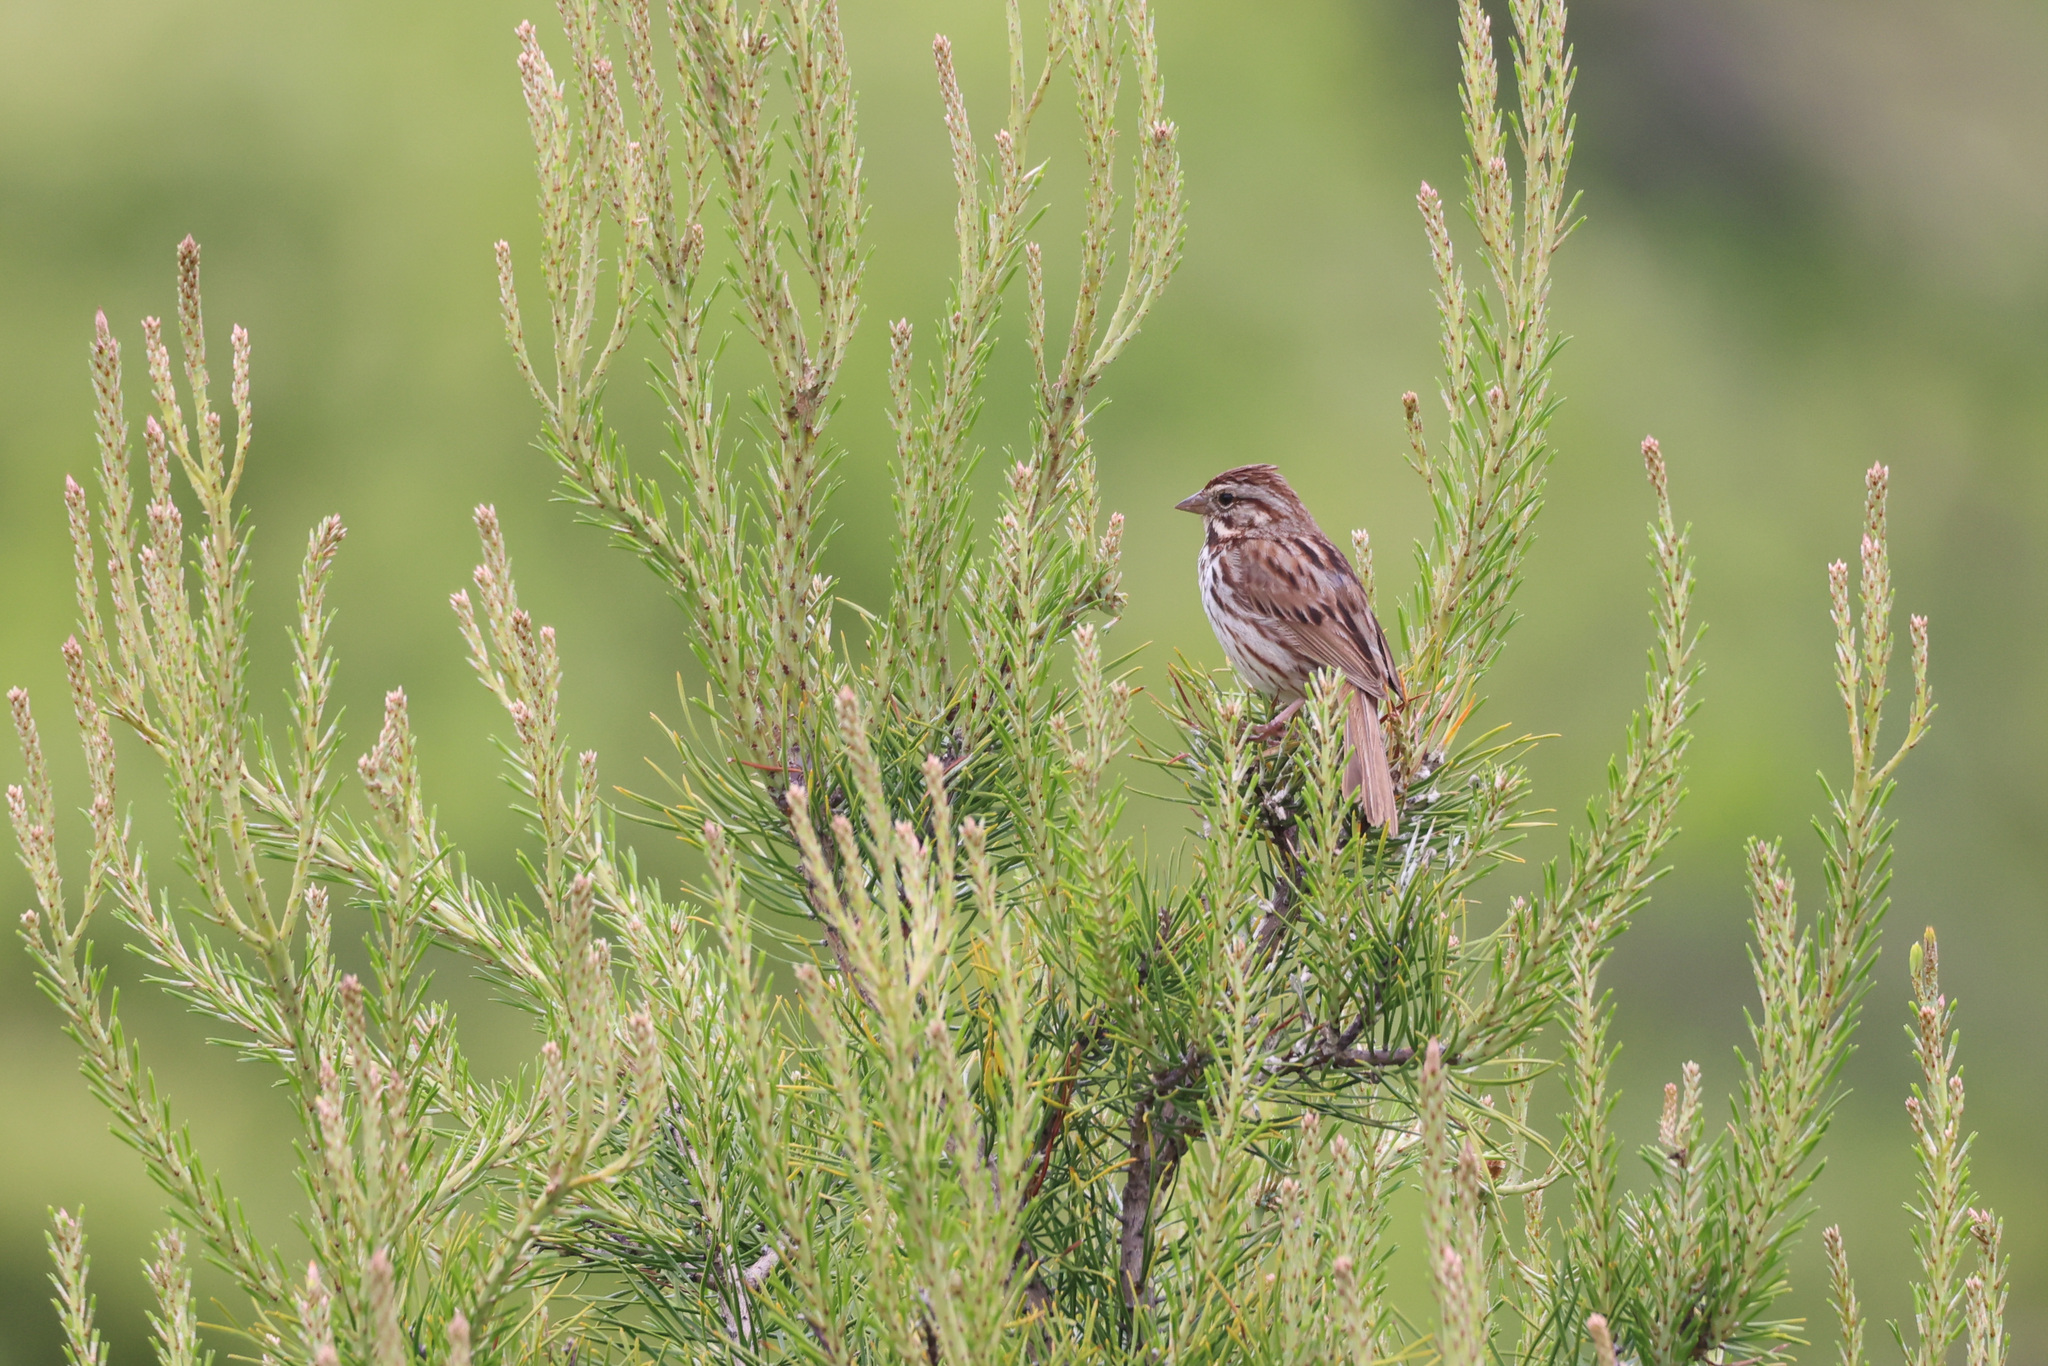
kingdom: Animalia
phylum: Chordata
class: Aves
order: Passeriformes
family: Passerellidae
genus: Melospiza
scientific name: Melospiza melodia
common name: Song sparrow
